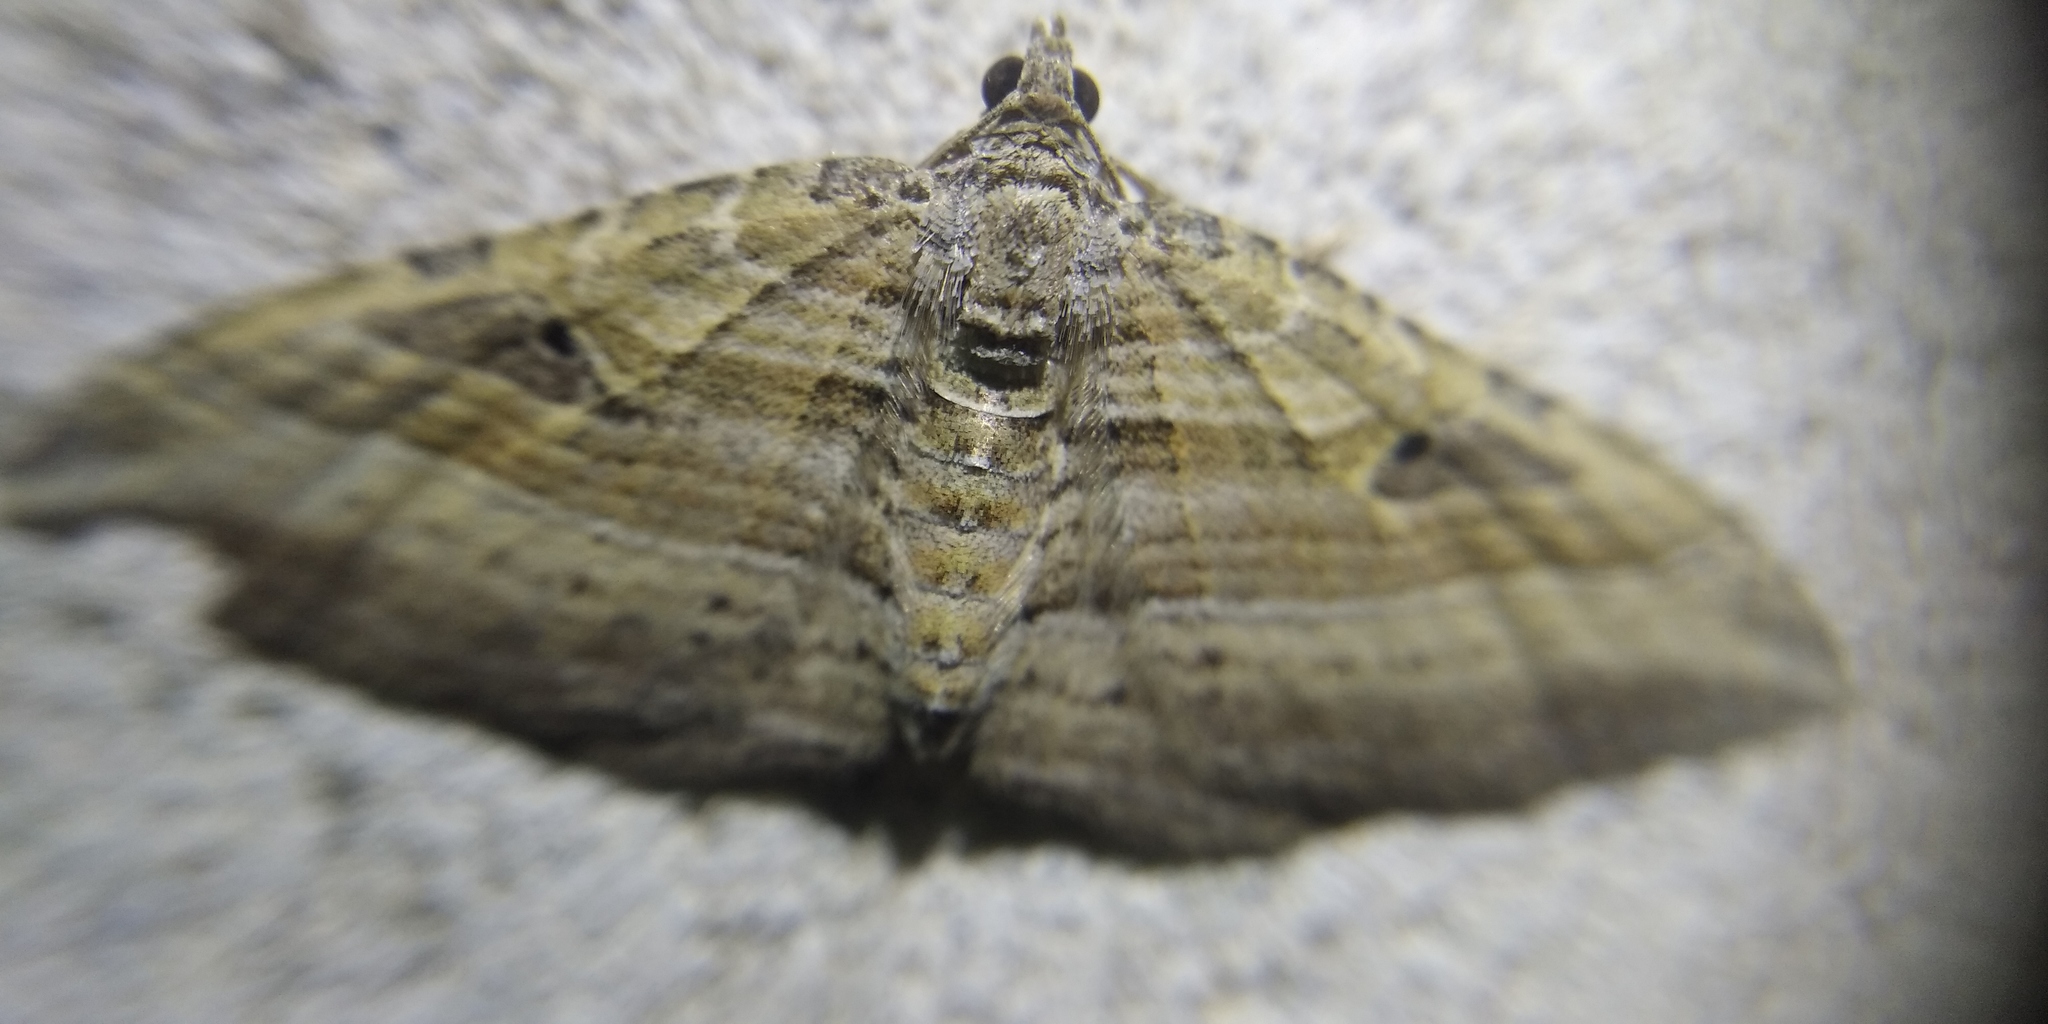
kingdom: Animalia
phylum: Arthropoda
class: Insecta
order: Lepidoptera
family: Geometridae
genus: Costaconvexa
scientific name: Costaconvexa polygrammata
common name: Many-lined
